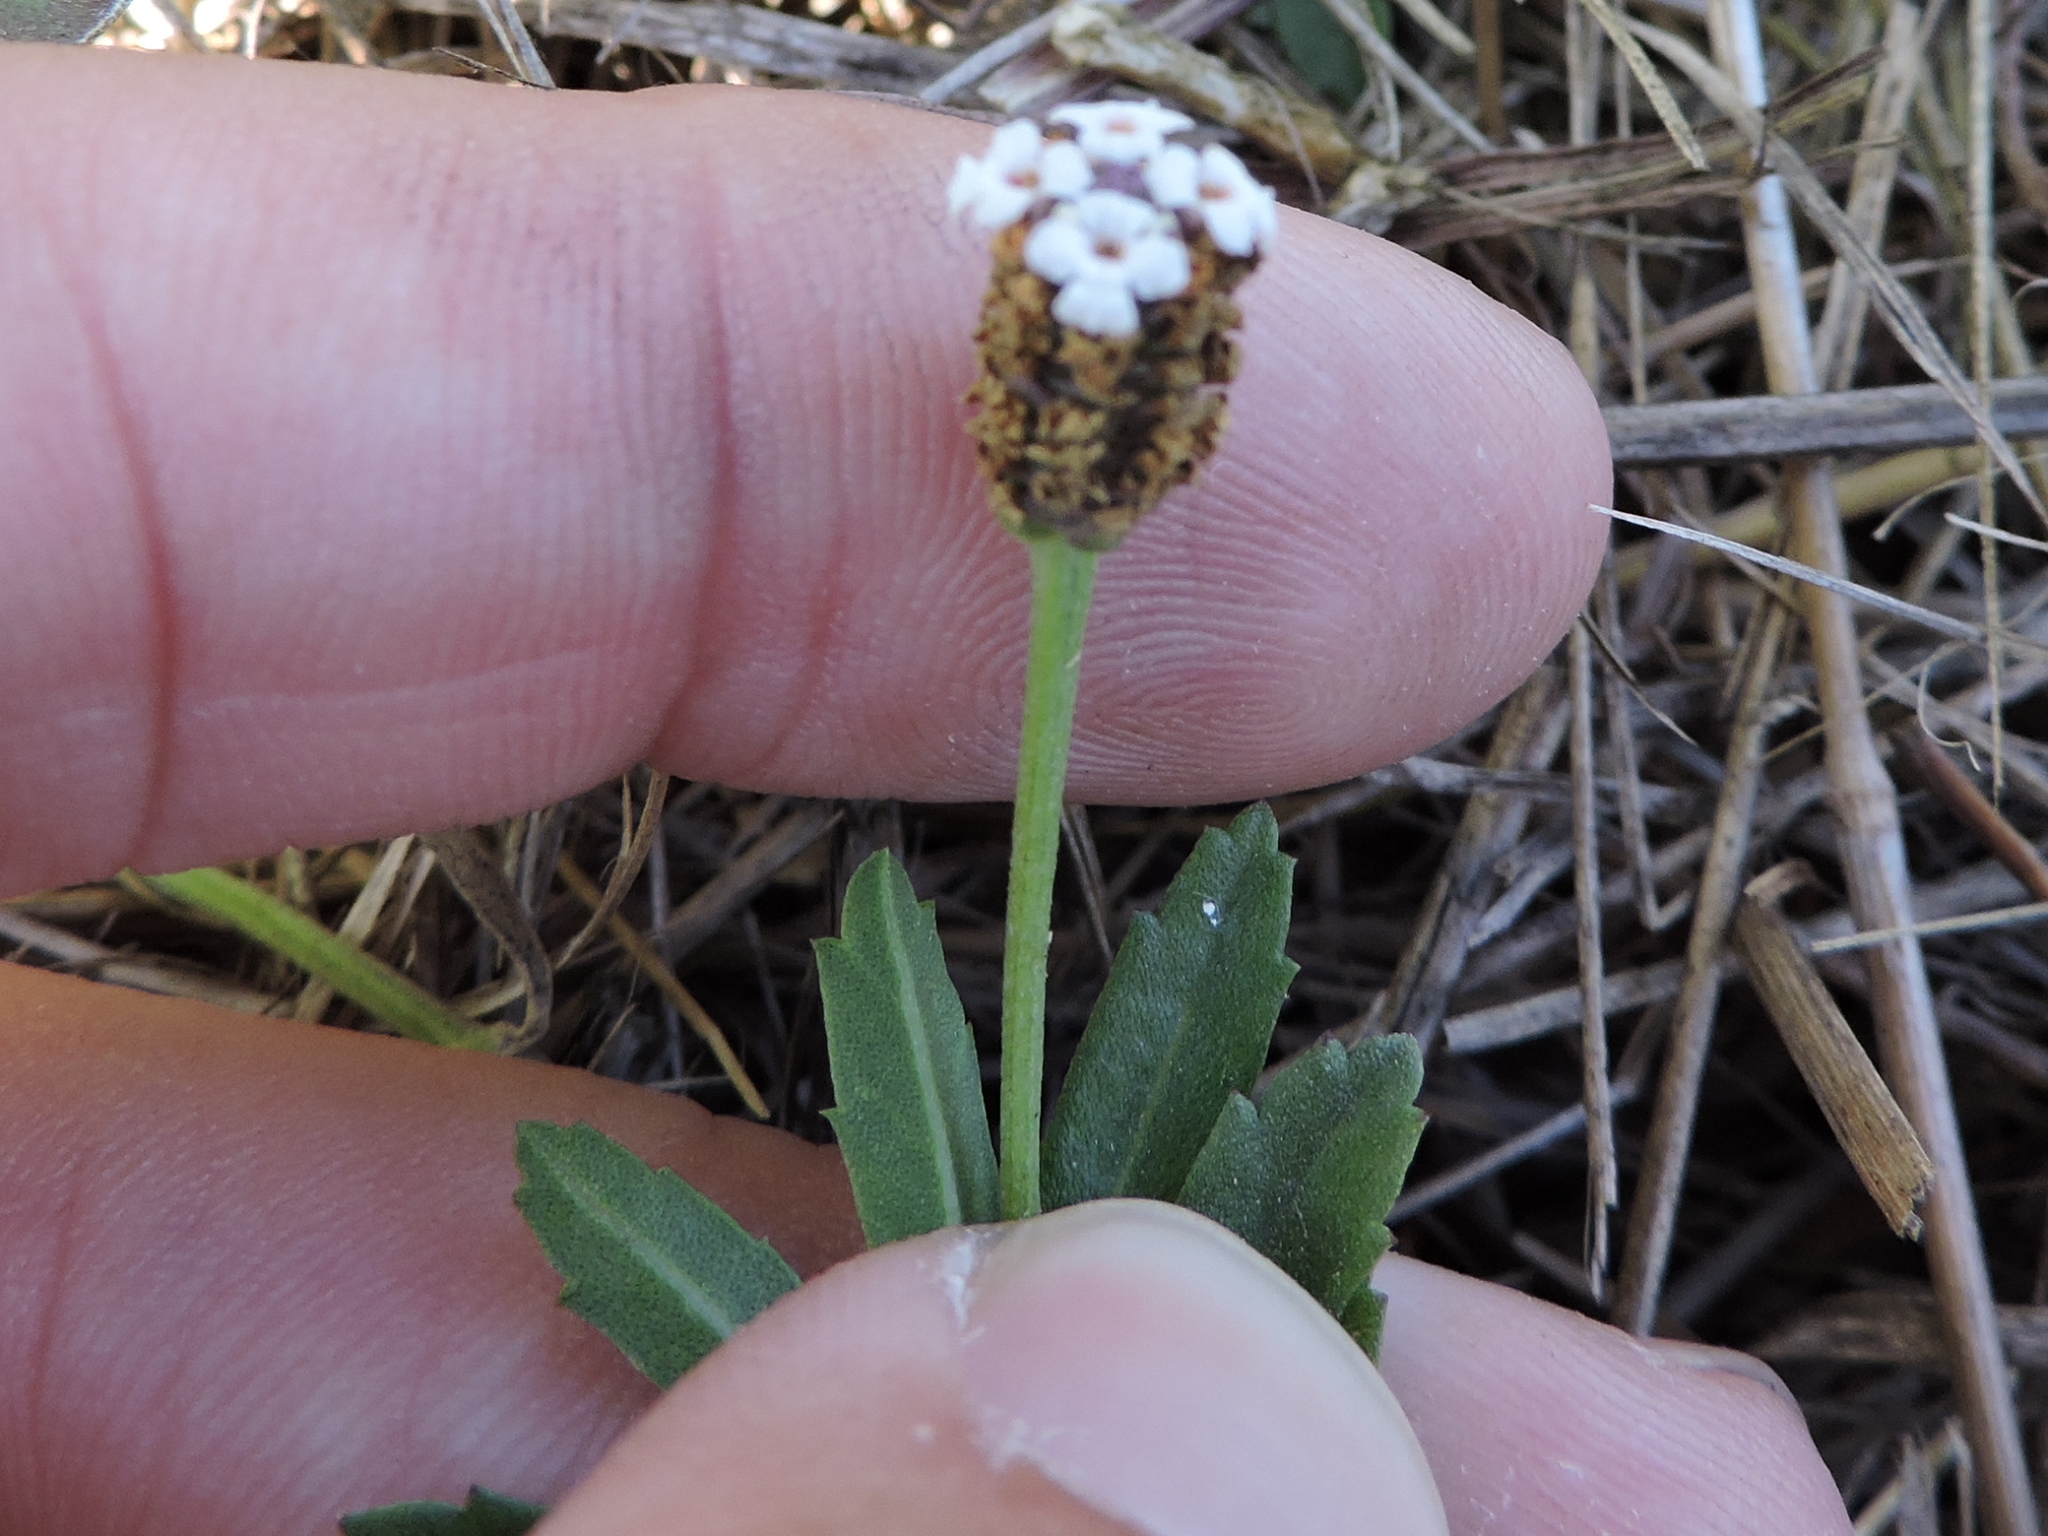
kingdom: Plantae
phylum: Tracheophyta
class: Magnoliopsida
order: Lamiales
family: Verbenaceae
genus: Phyla
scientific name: Phyla nodiflora
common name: Frogfruit
